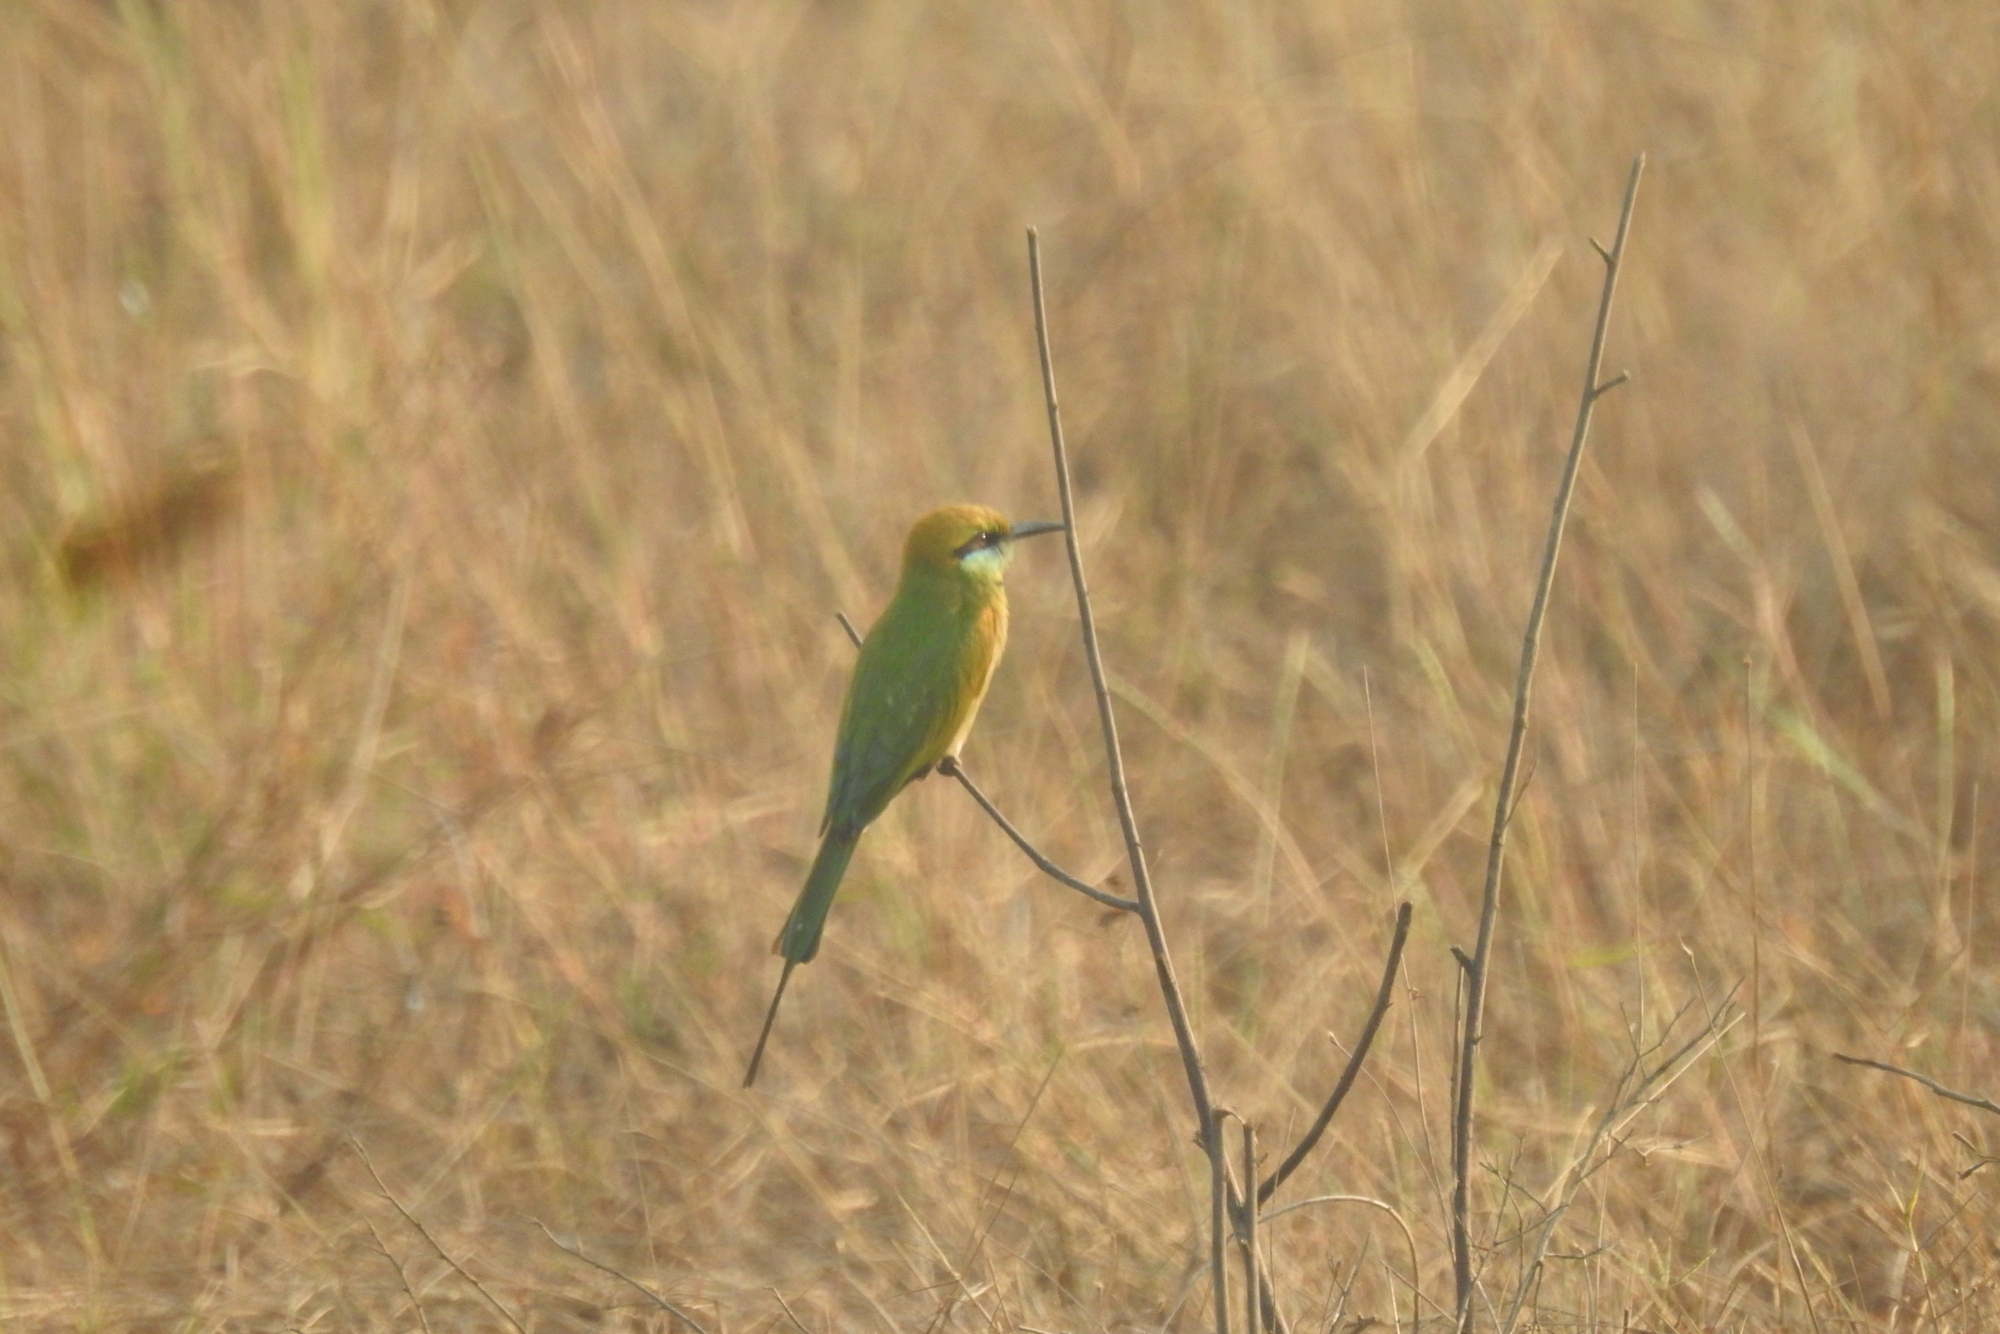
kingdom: Animalia
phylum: Chordata
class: Aves
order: Coraciiformes
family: Meropidae
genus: Merops
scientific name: Merops orientalis
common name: Green bee-eater
